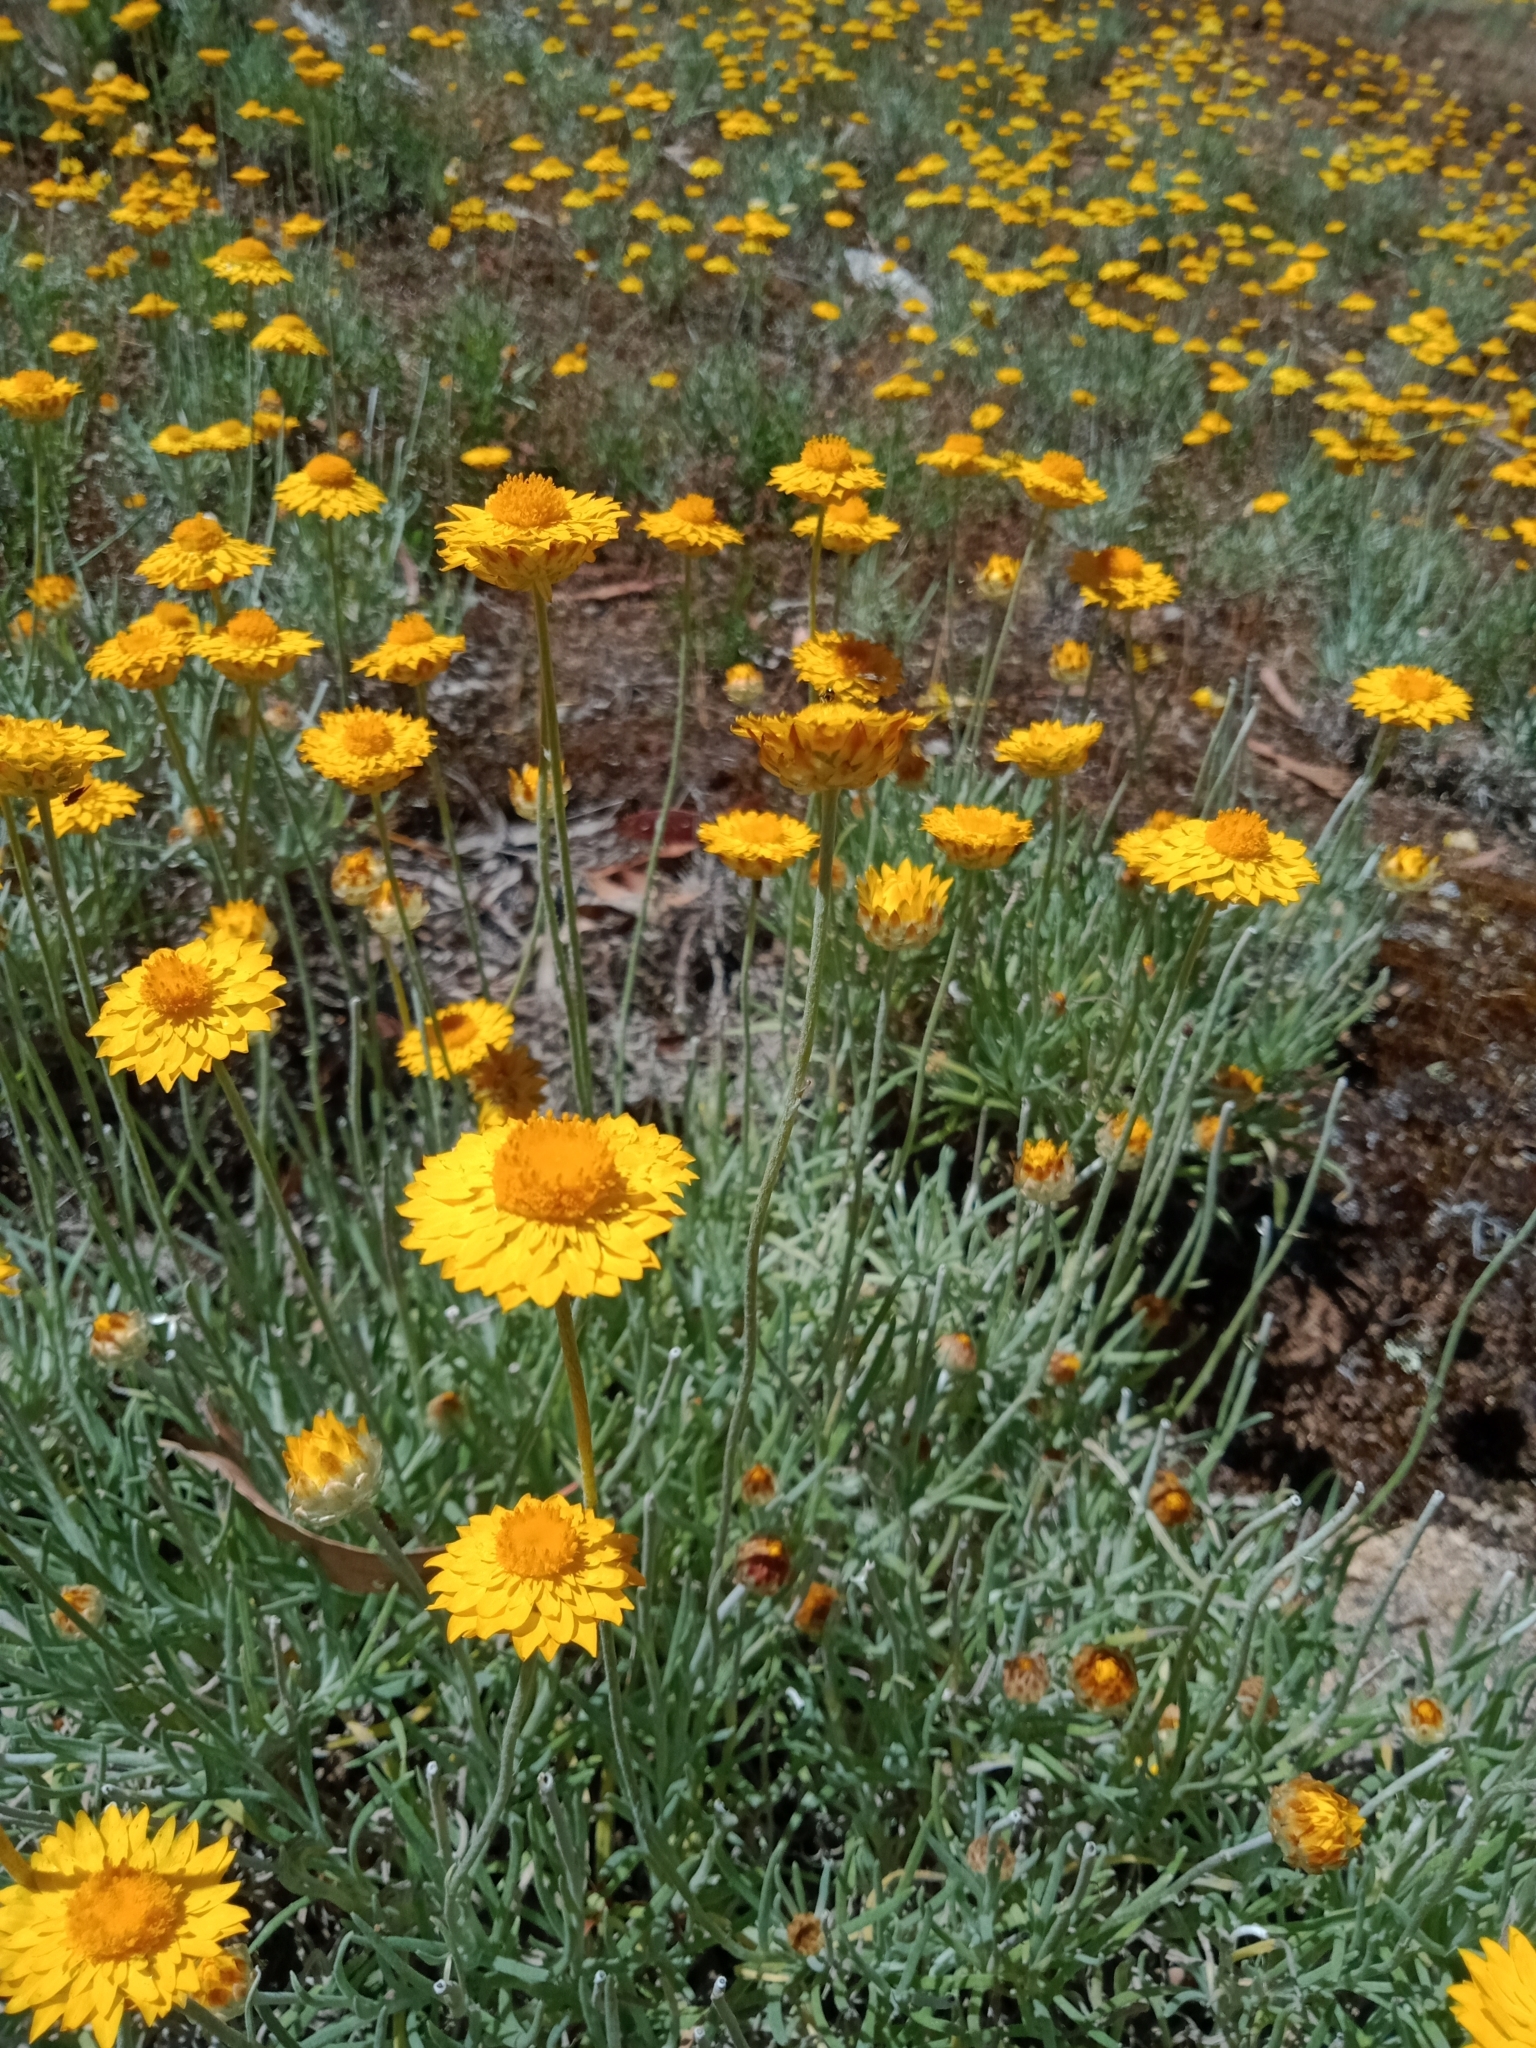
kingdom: Plantae
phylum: Tracheophyta
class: Magnoliopsida
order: Asterales
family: Asteraceae
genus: Leucochrysum
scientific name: Leucochrysum albicans
